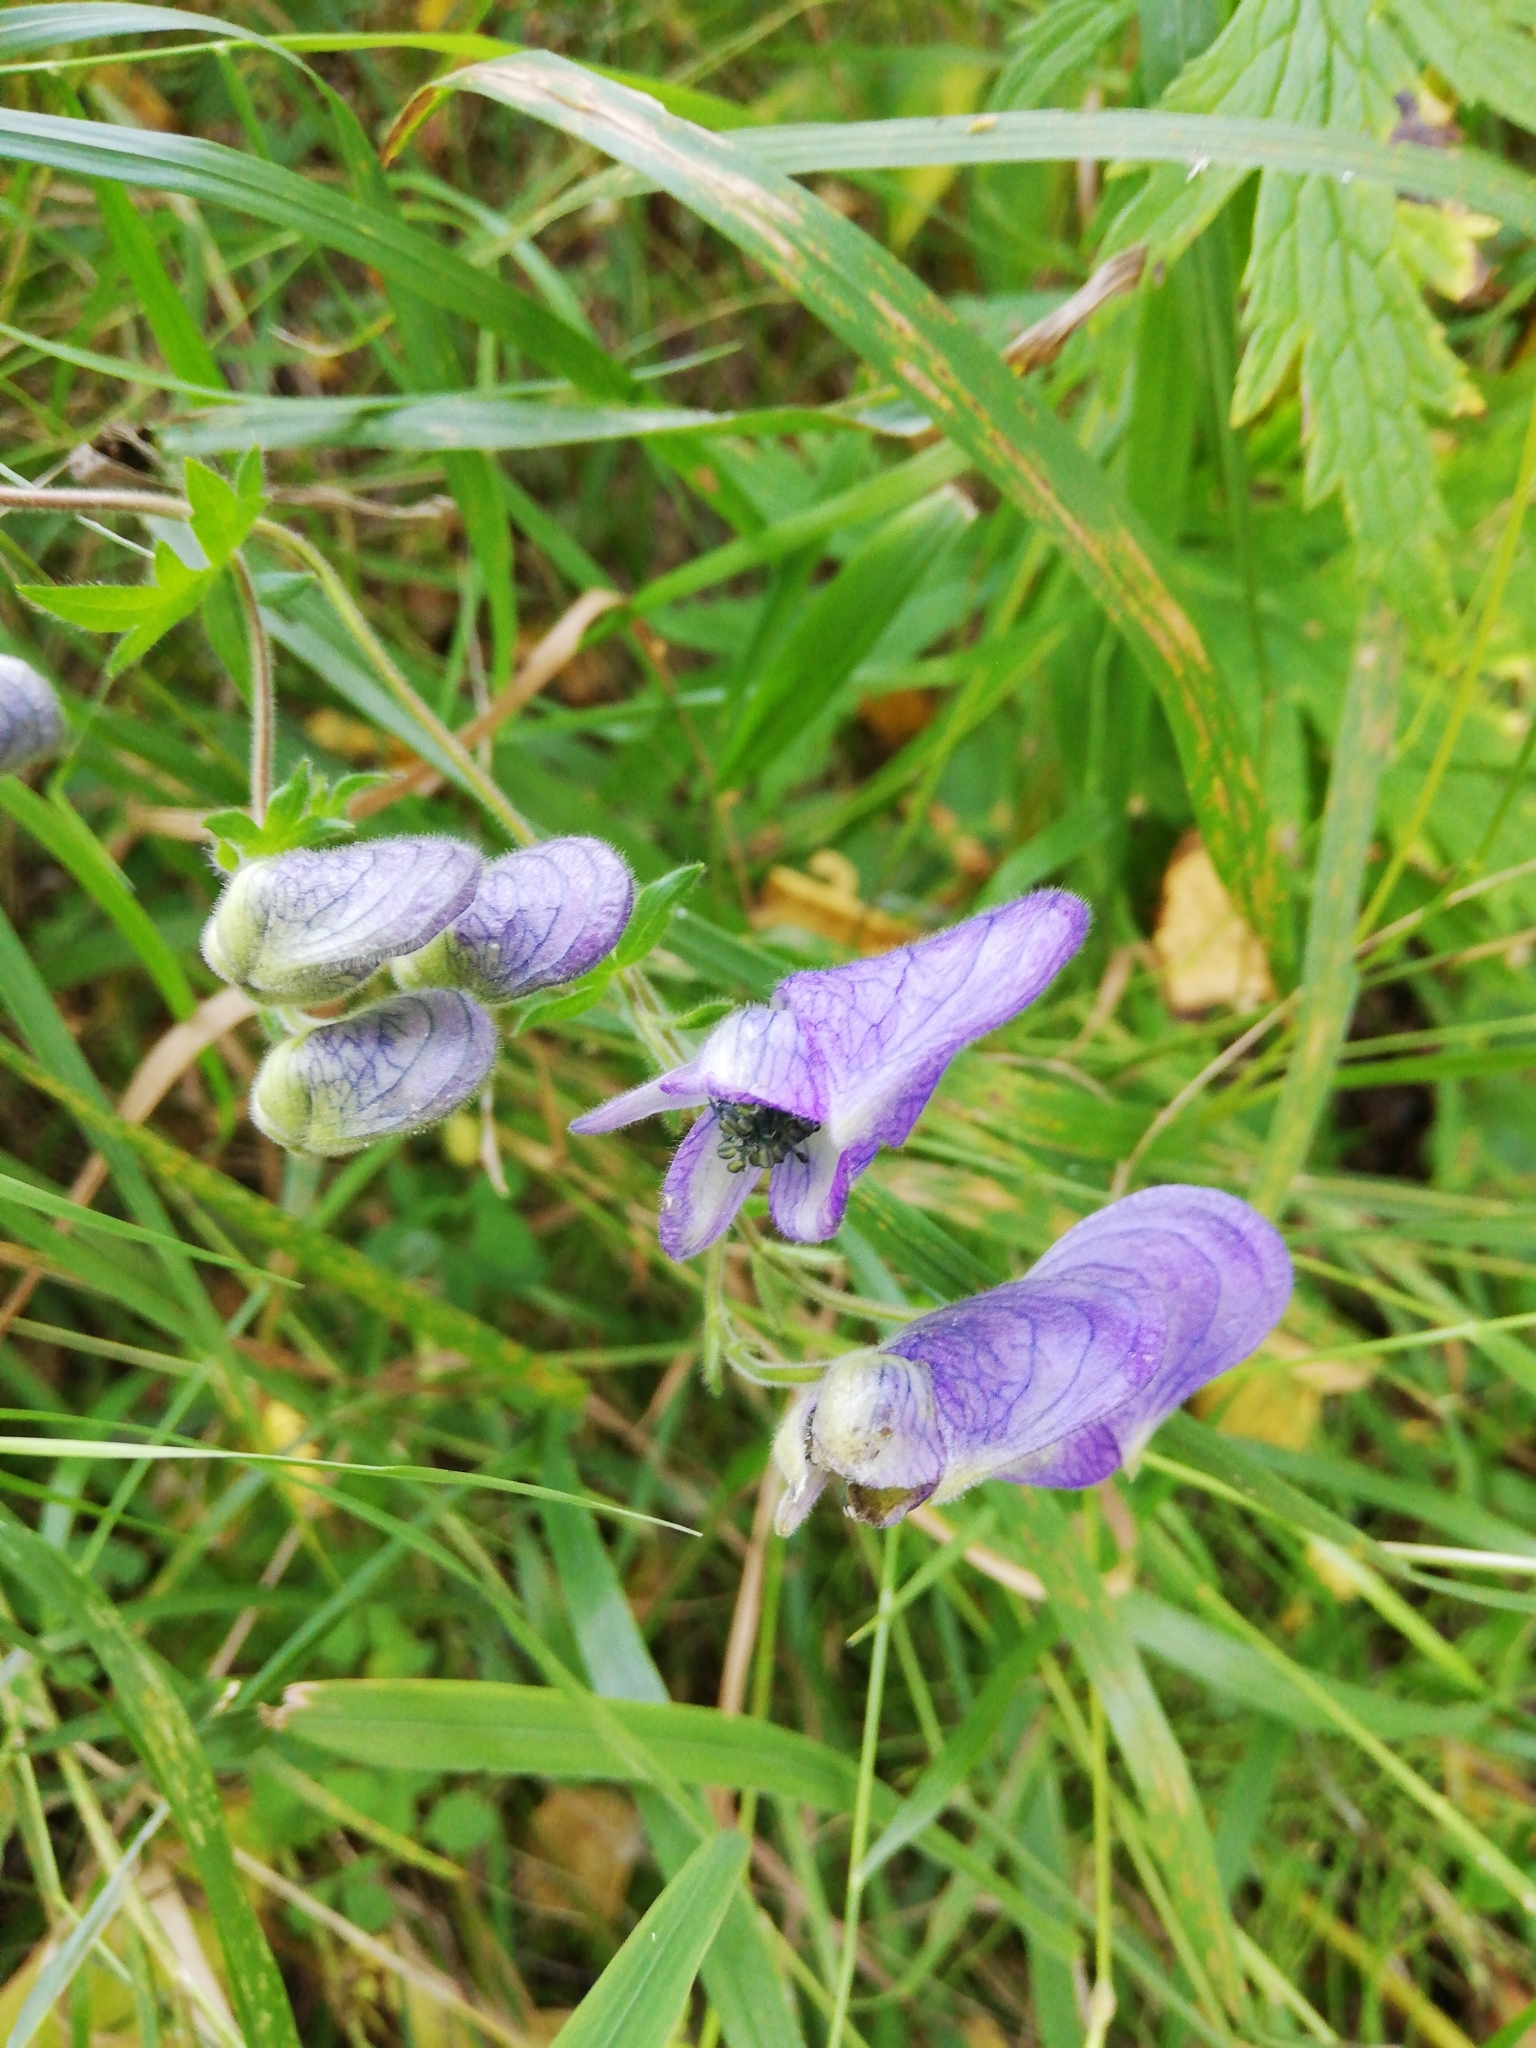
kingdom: Plantae
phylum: Tracheophyta
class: Magnoliopsida
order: Ranunculales
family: Ranunculaceae
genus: Aconitum
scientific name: Aconitum volubile
